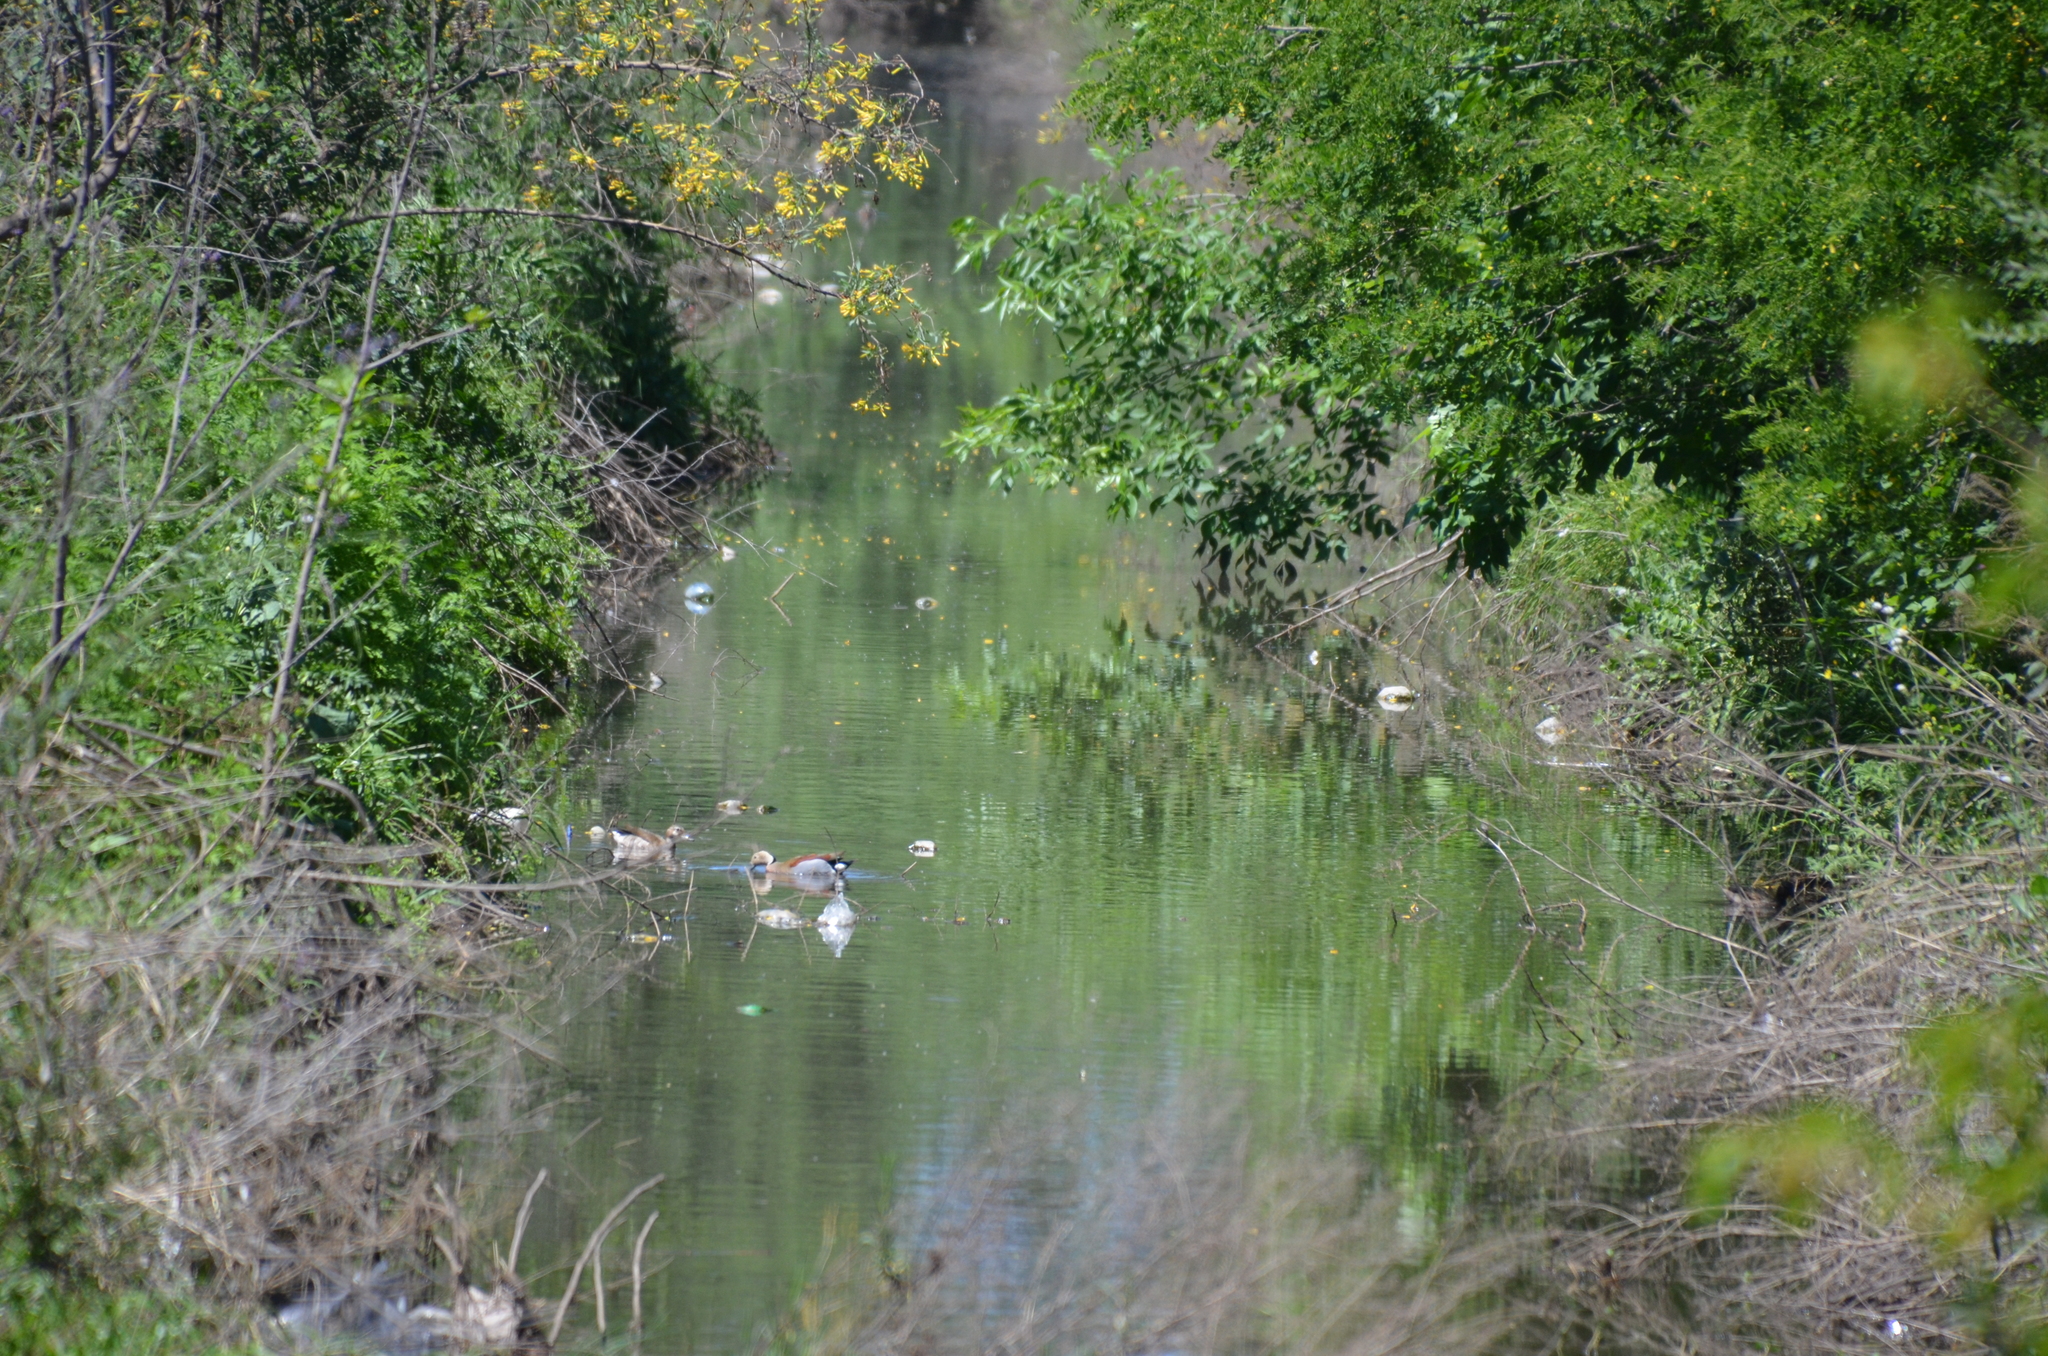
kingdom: Animalia
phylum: Chordata
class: Aves
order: Anseriformes
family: Anatidae
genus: Callonetta
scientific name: Callonetta leucophrys
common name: Ringed teal
